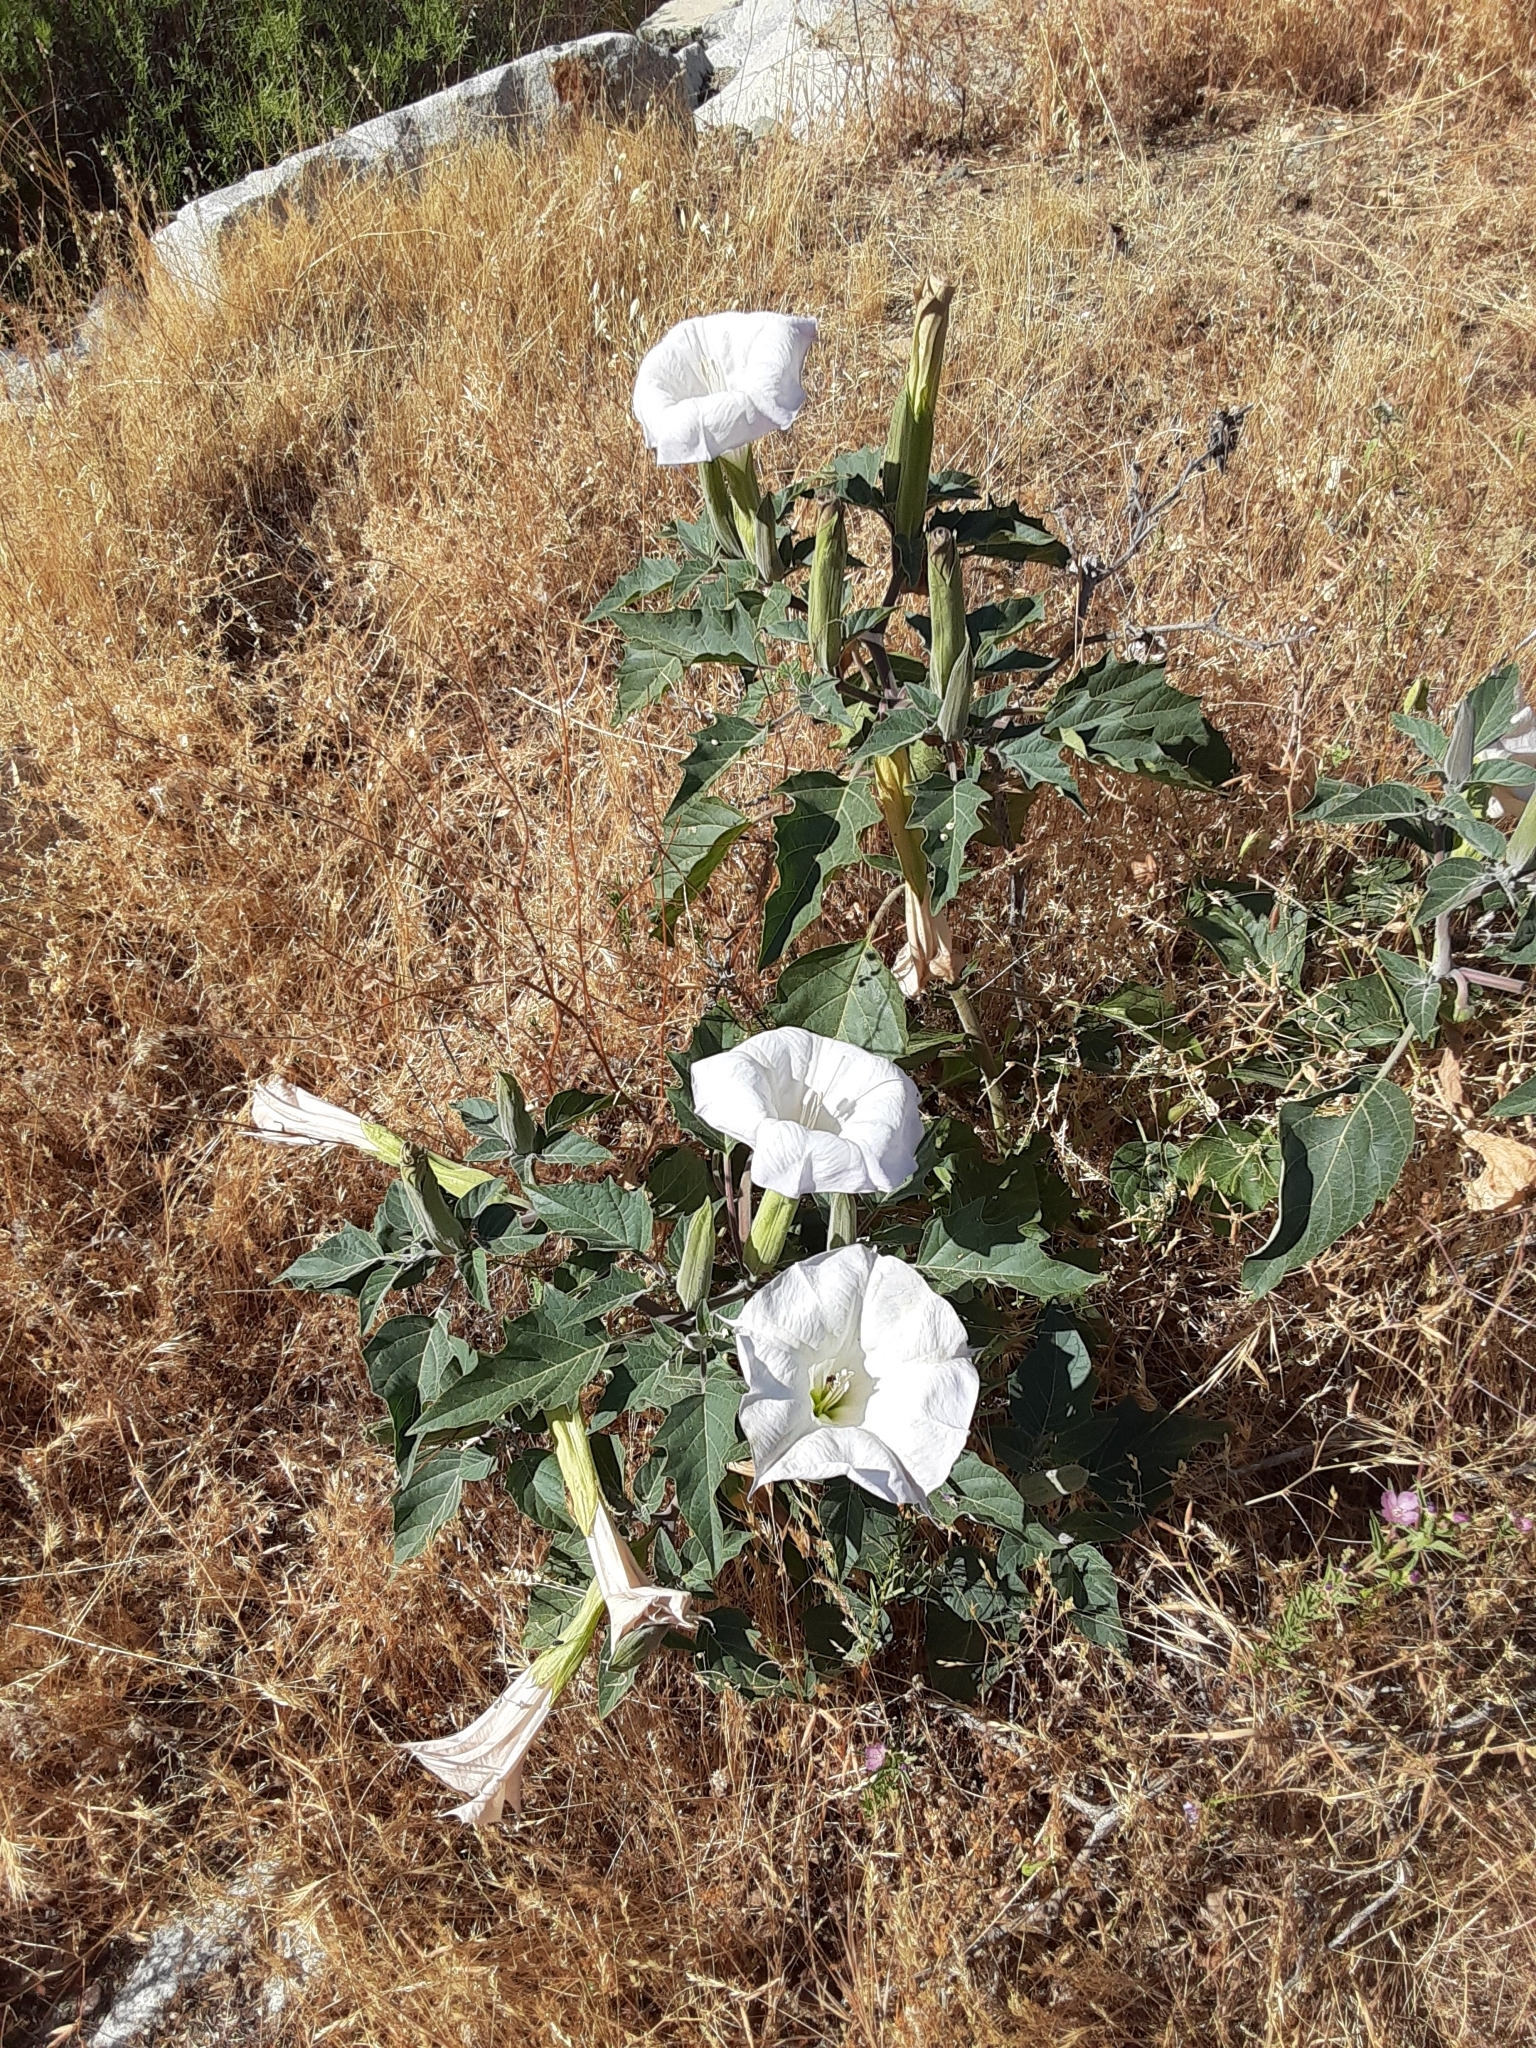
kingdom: Plantae
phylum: Tracheophyta
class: Magnoliopsida
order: Solanales
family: Solanaceae
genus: Datura
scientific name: Datura wrightii
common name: Sacred thorn-apple
